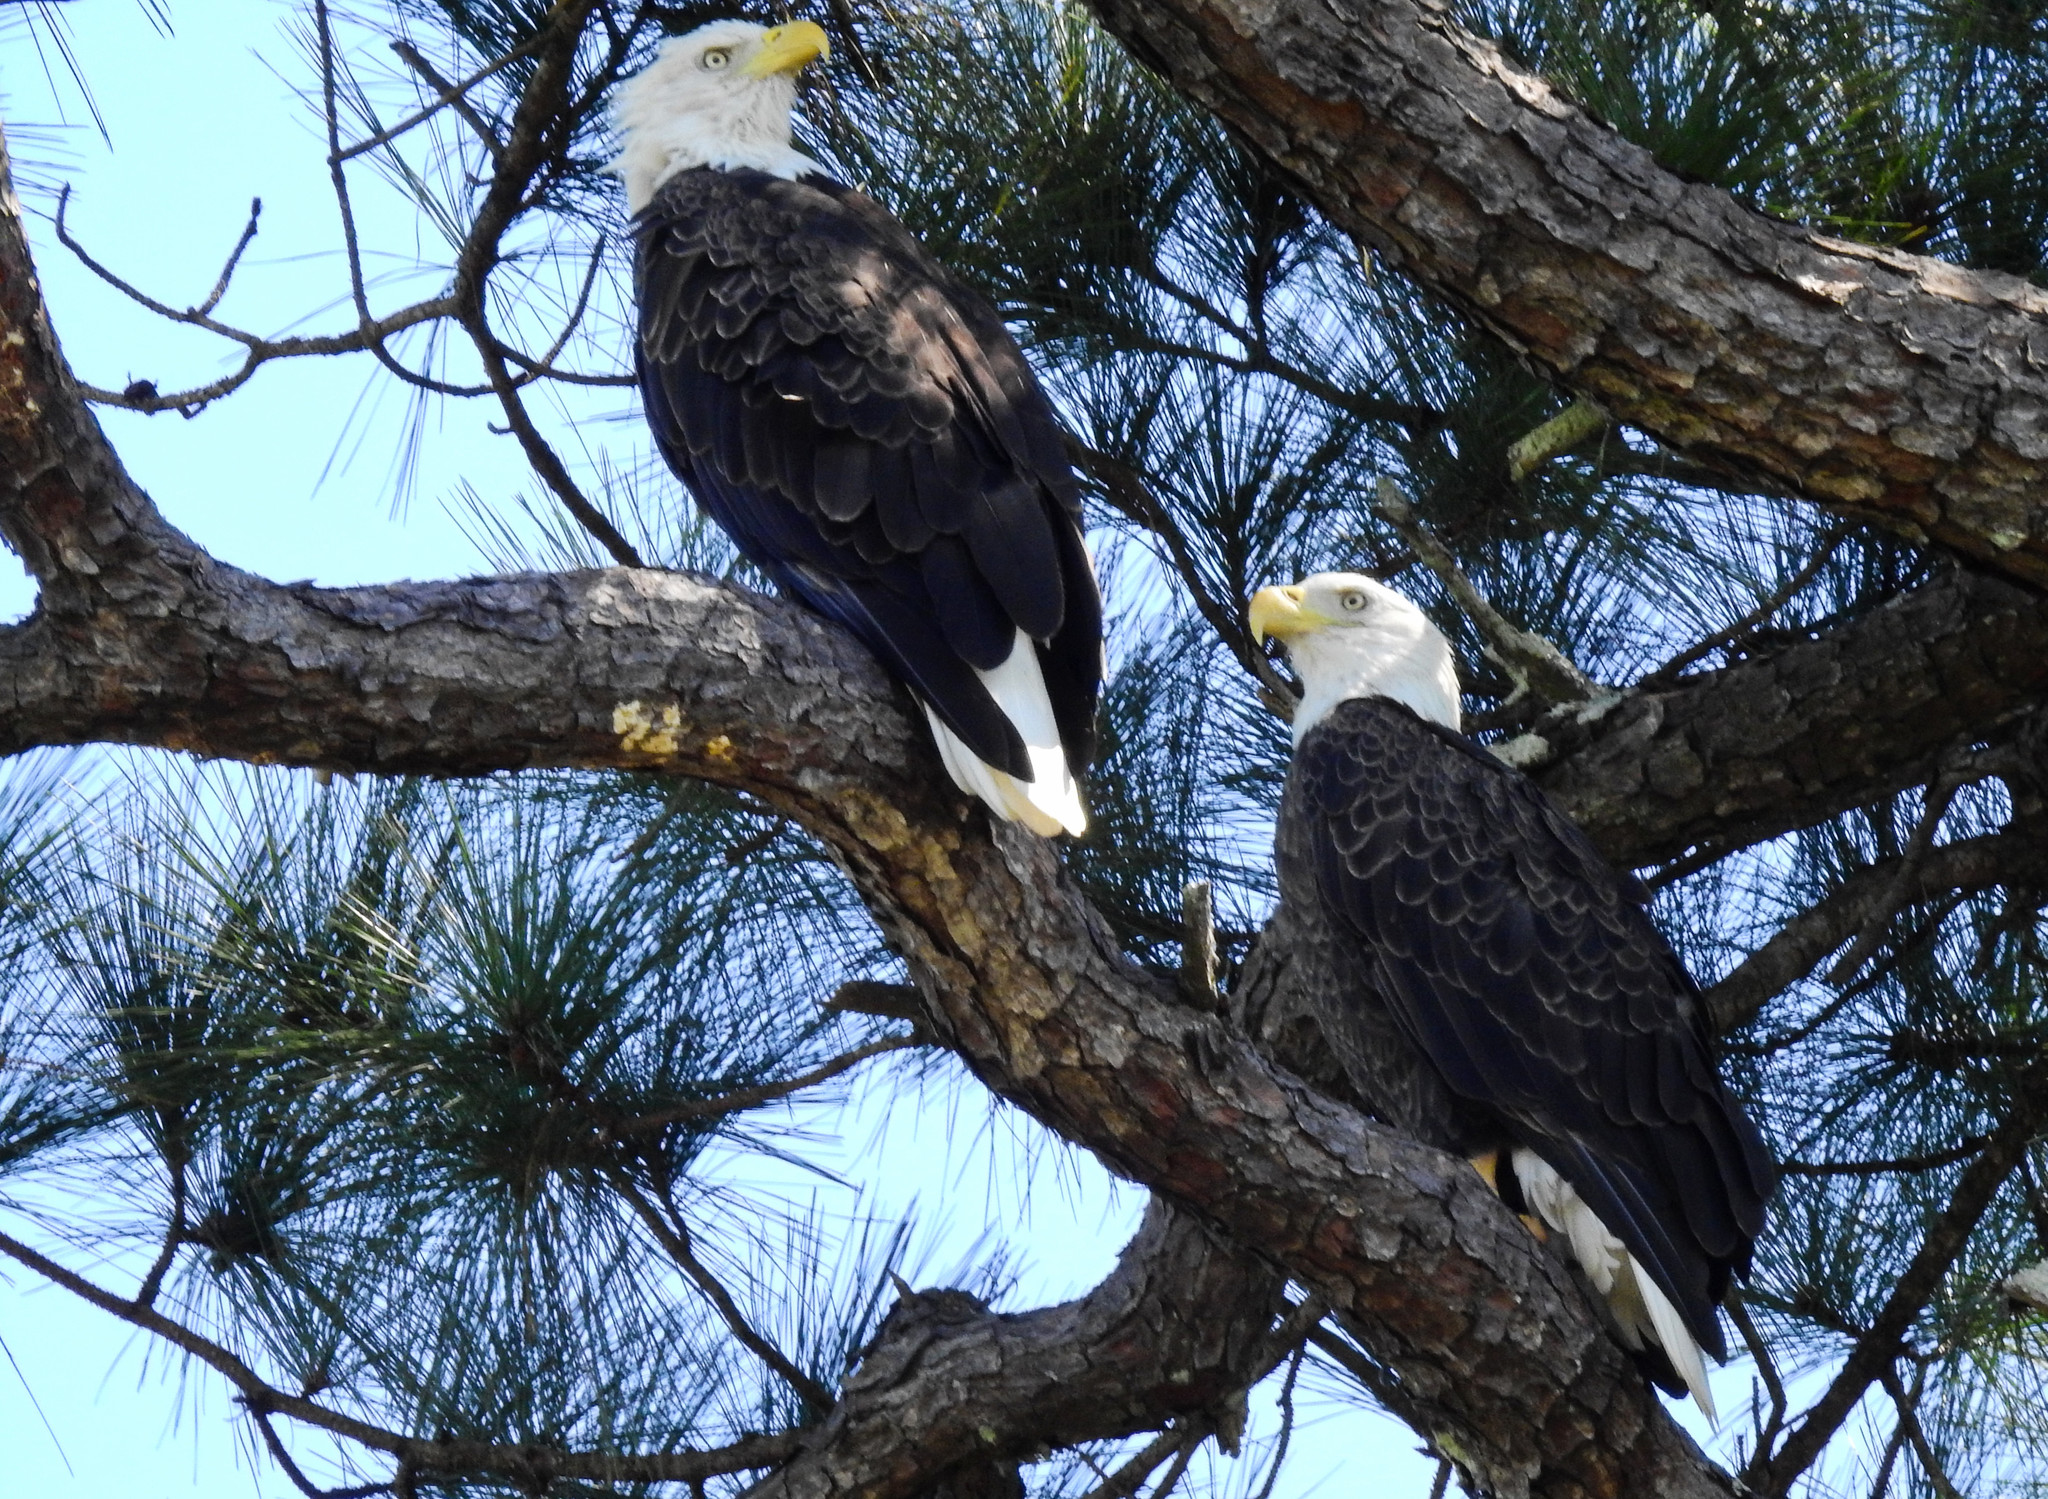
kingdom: Animalia
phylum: Chordata
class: Aves
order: Accipitriformes
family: Accipitridae
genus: Haliaeetus
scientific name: Haliaeetus leucocephalus
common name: Bald eagle
